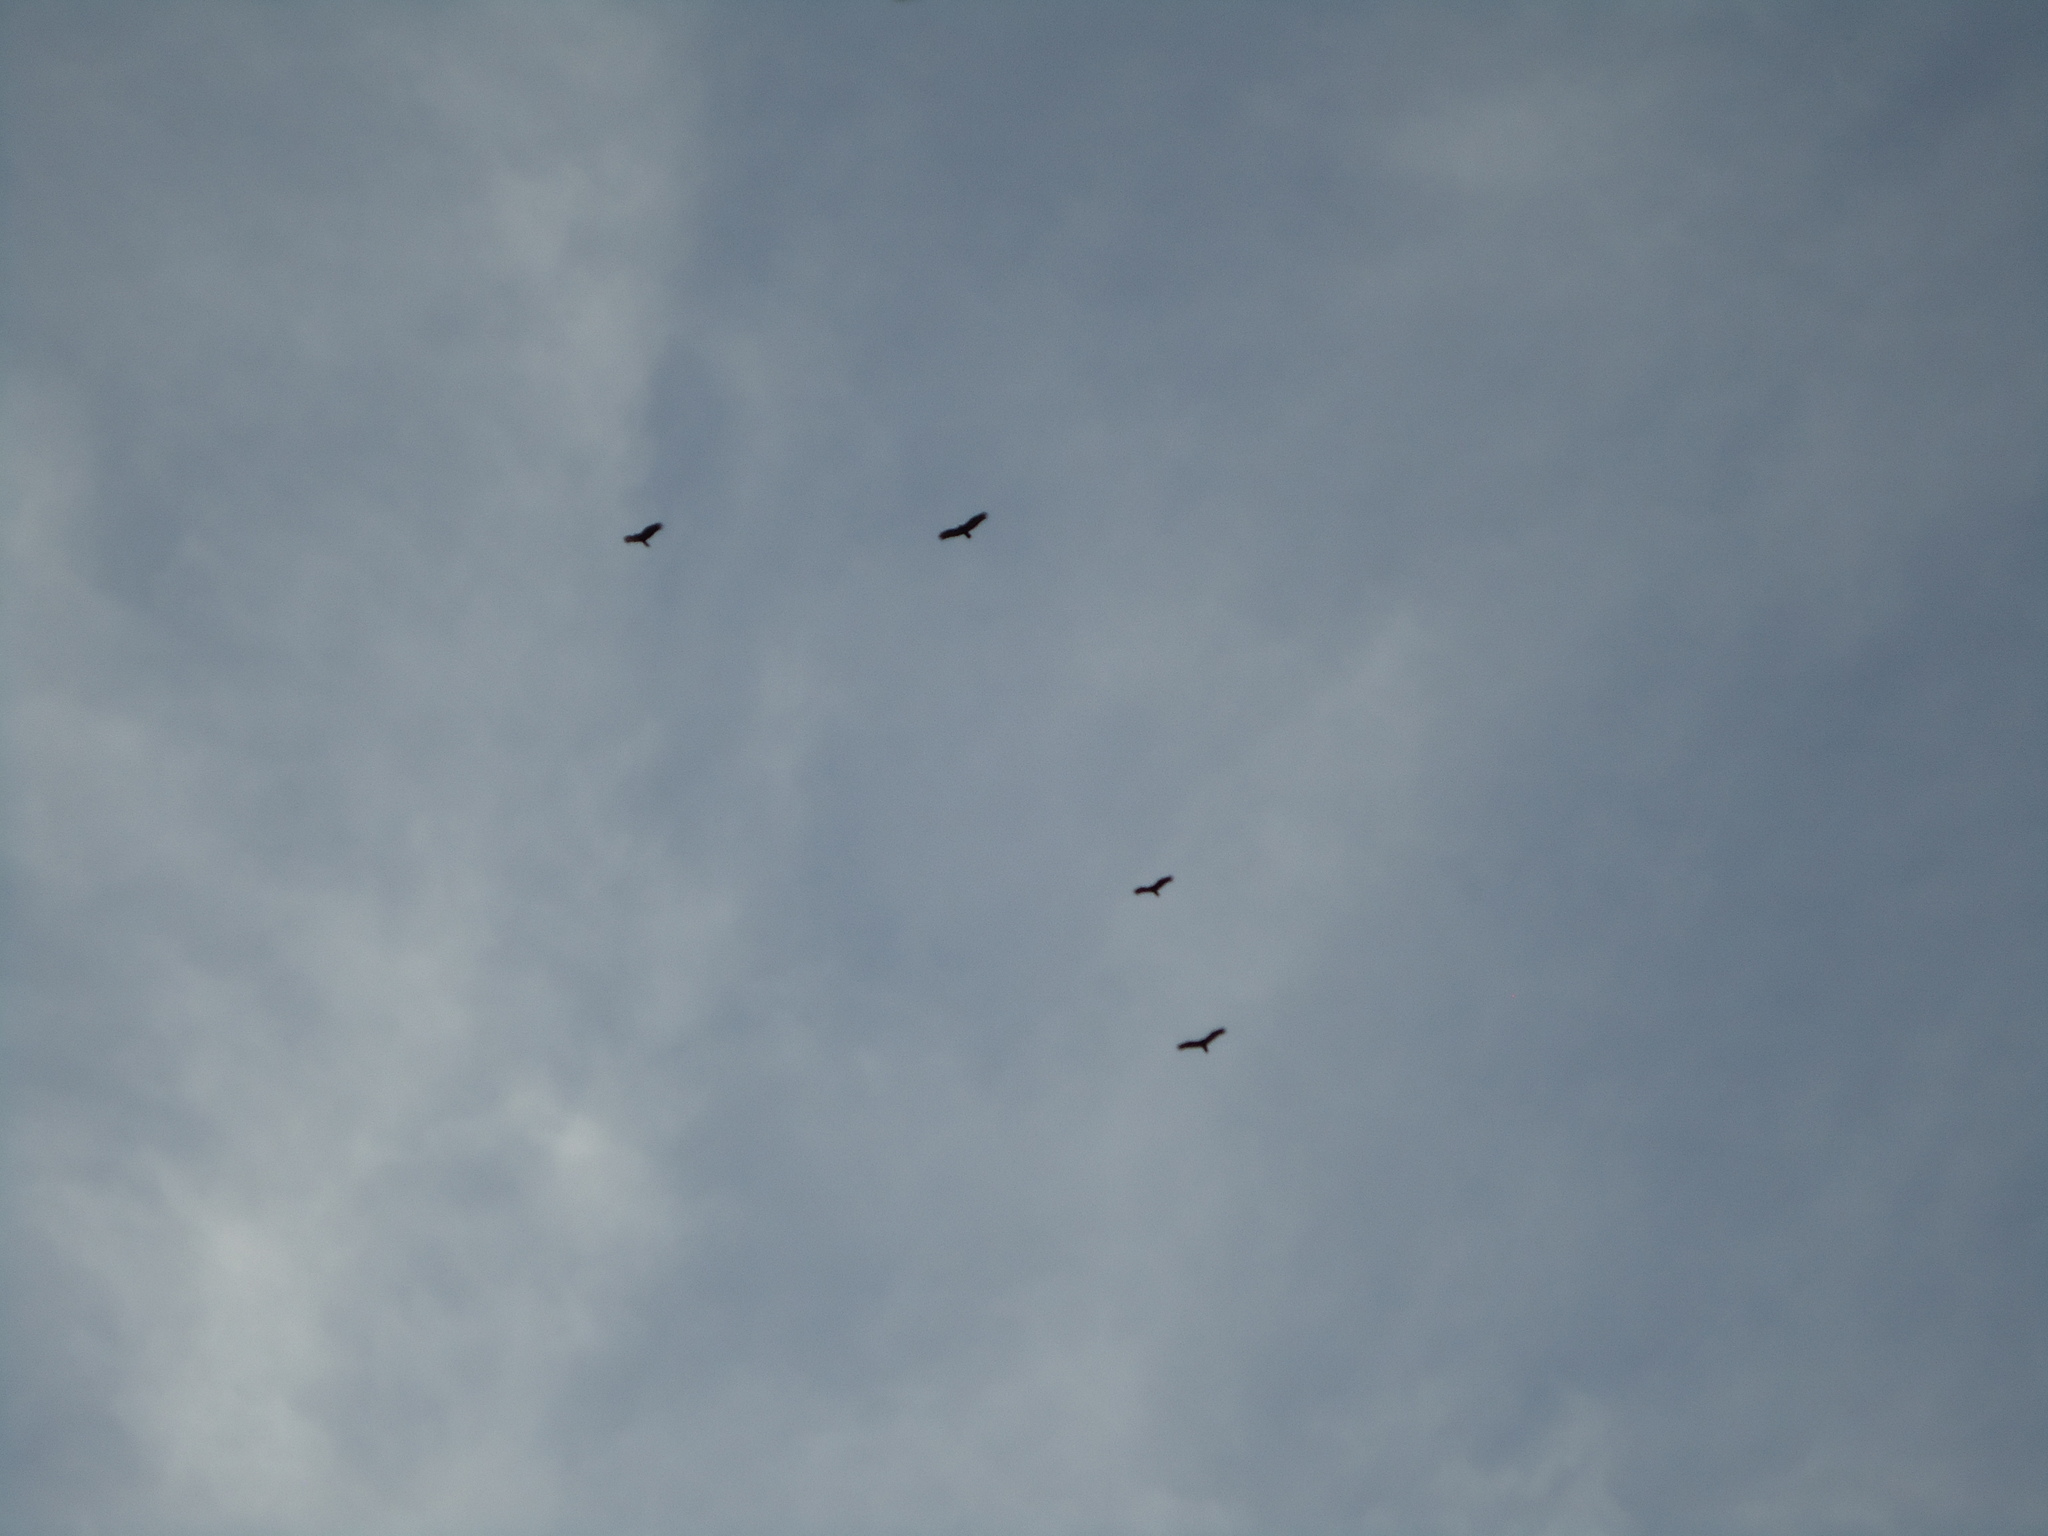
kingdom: Animalia
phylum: Chordata
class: Aves
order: Accipitriformes
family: Cathartidae
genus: Cathartes
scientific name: Cathartes aura
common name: Turkey vulture
